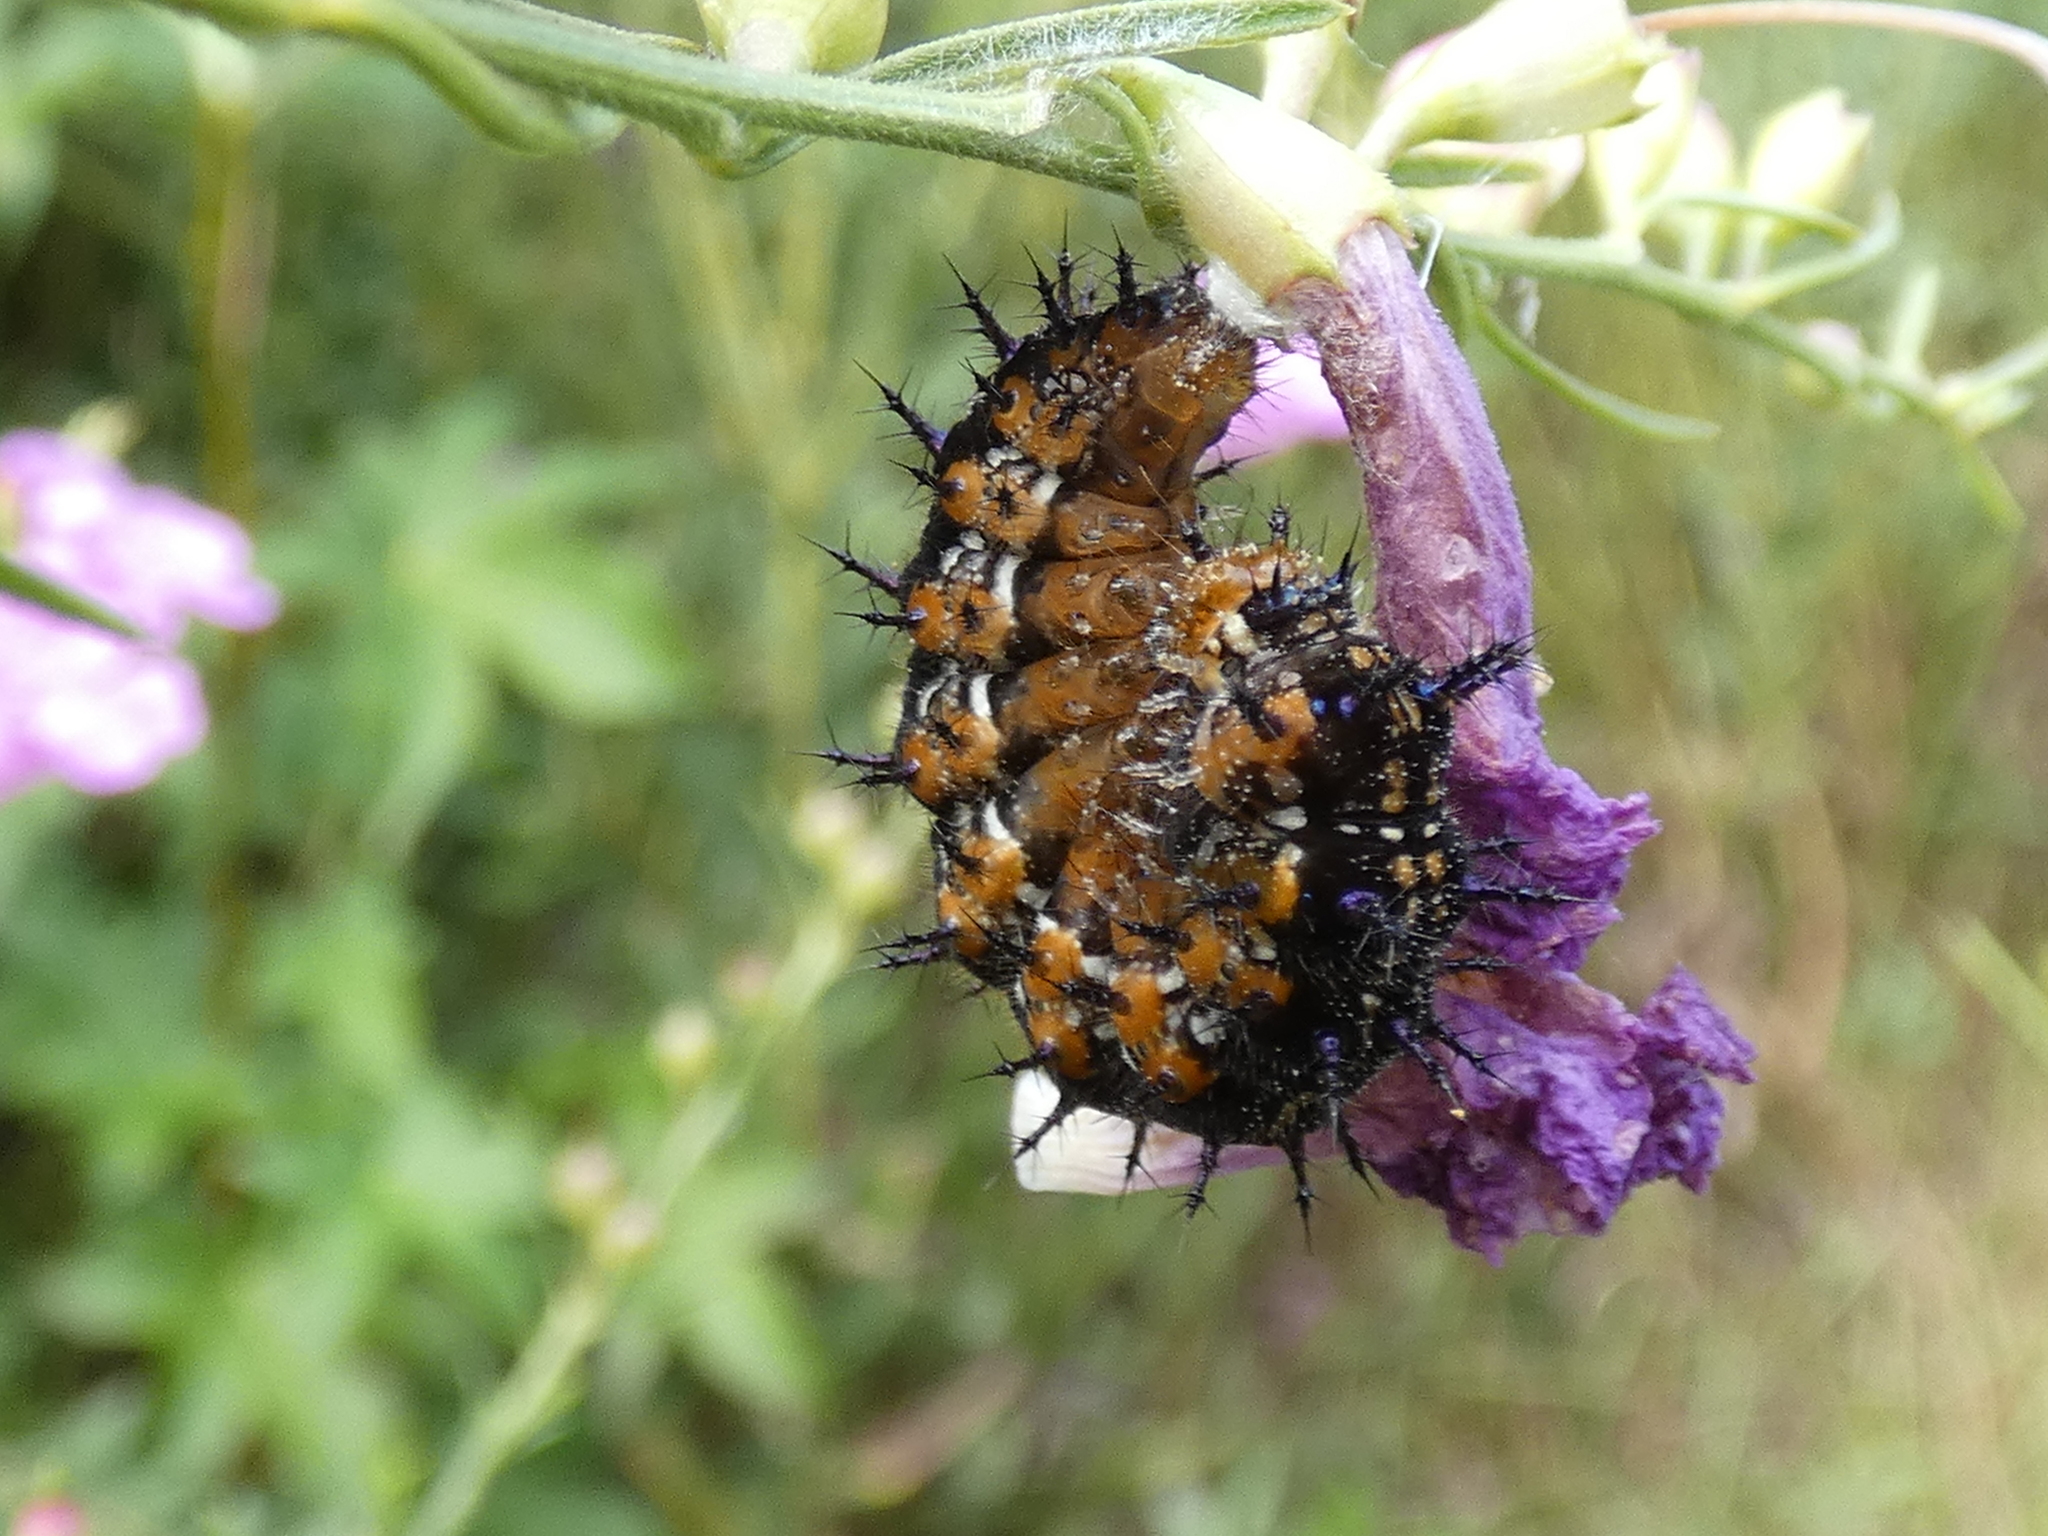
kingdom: Animalia
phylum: Arthropoda
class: Insecta
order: Lepidoptera
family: Nymphalidae
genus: Junonia
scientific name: Junonia coenia
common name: Common buckeye
